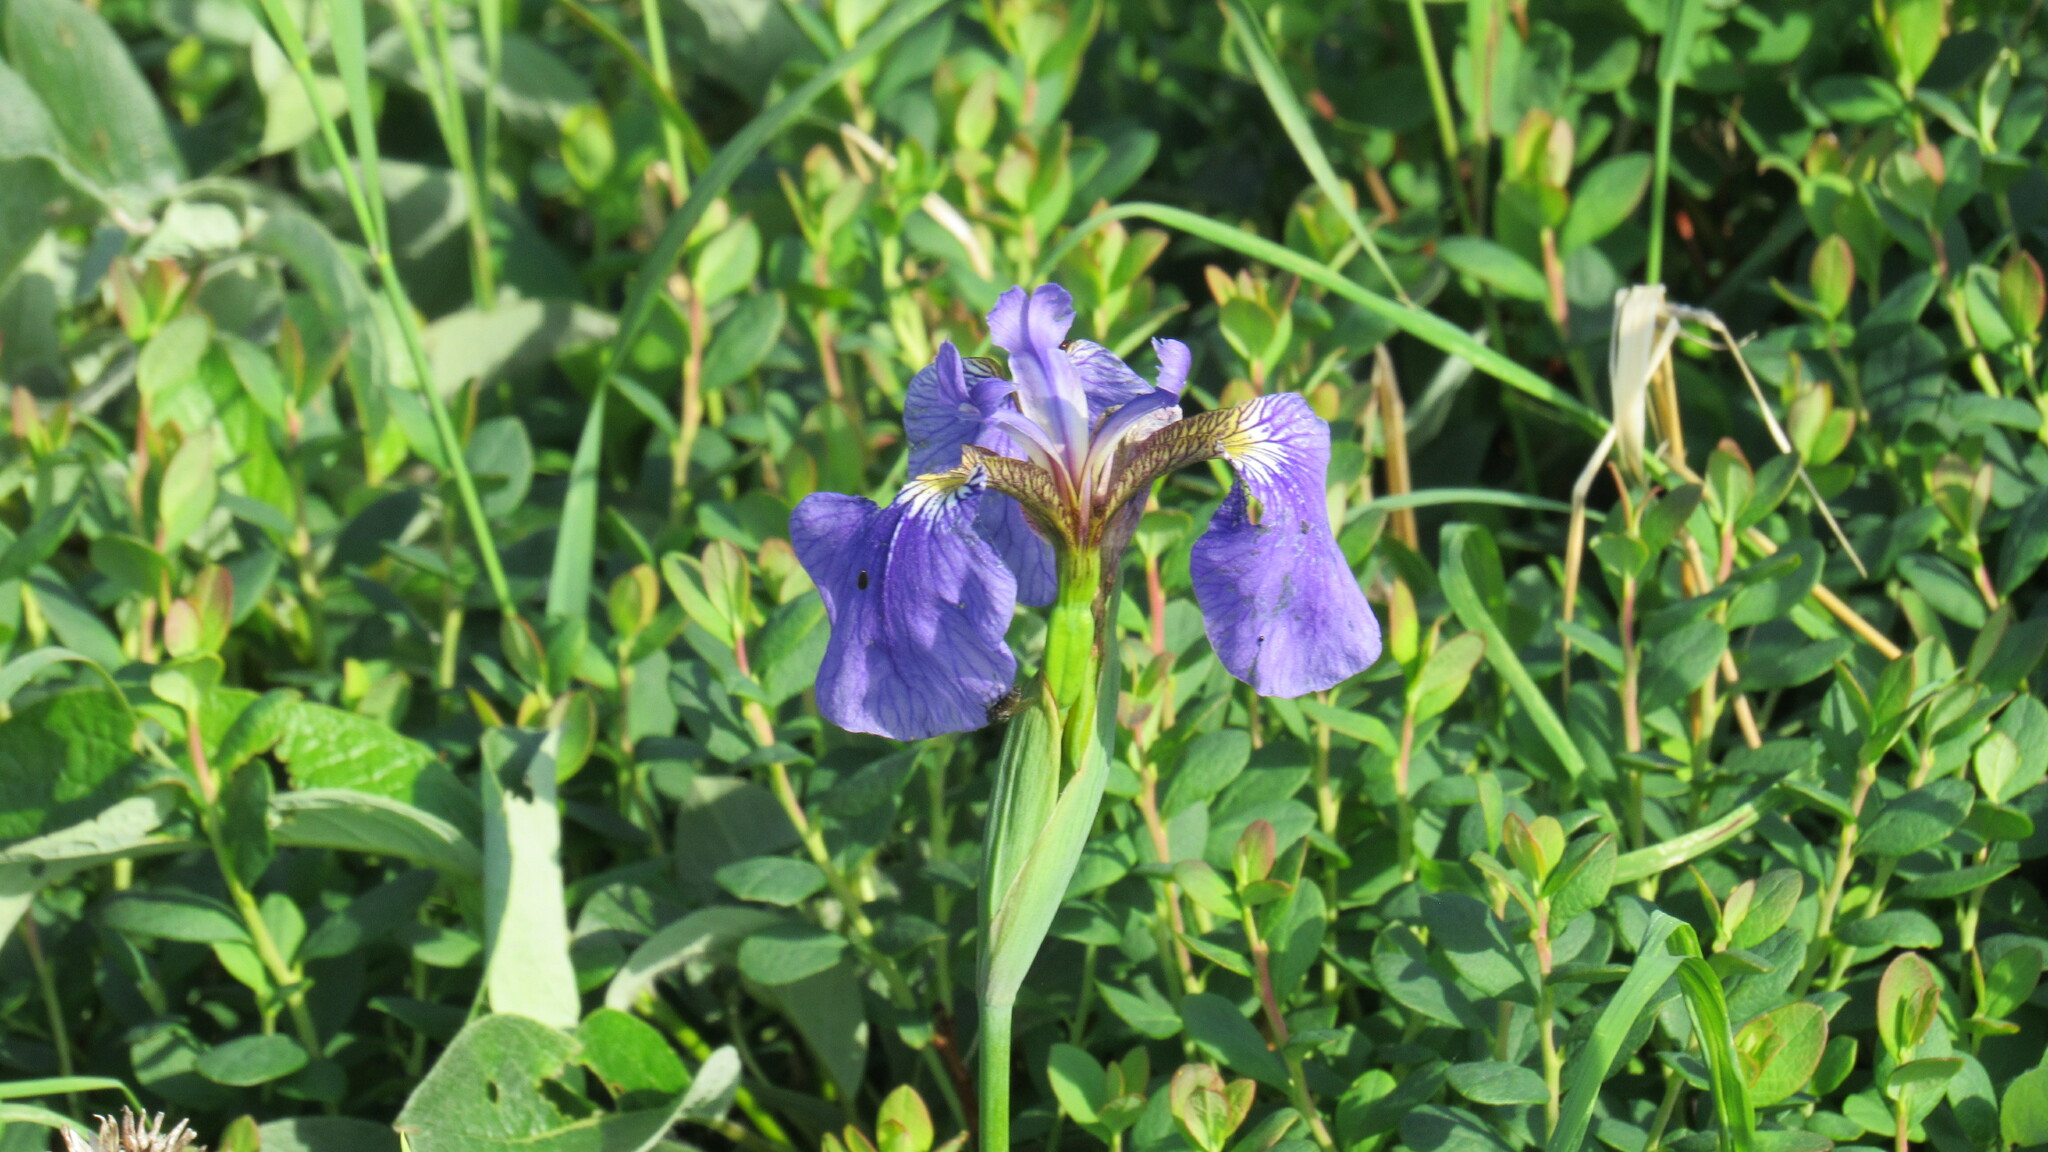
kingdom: Plantae
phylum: Tracheophyta
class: Liliopsida
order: Asparagales
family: Iridaceae
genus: Iris
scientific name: Iris setosa
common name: Arctic blue flag
